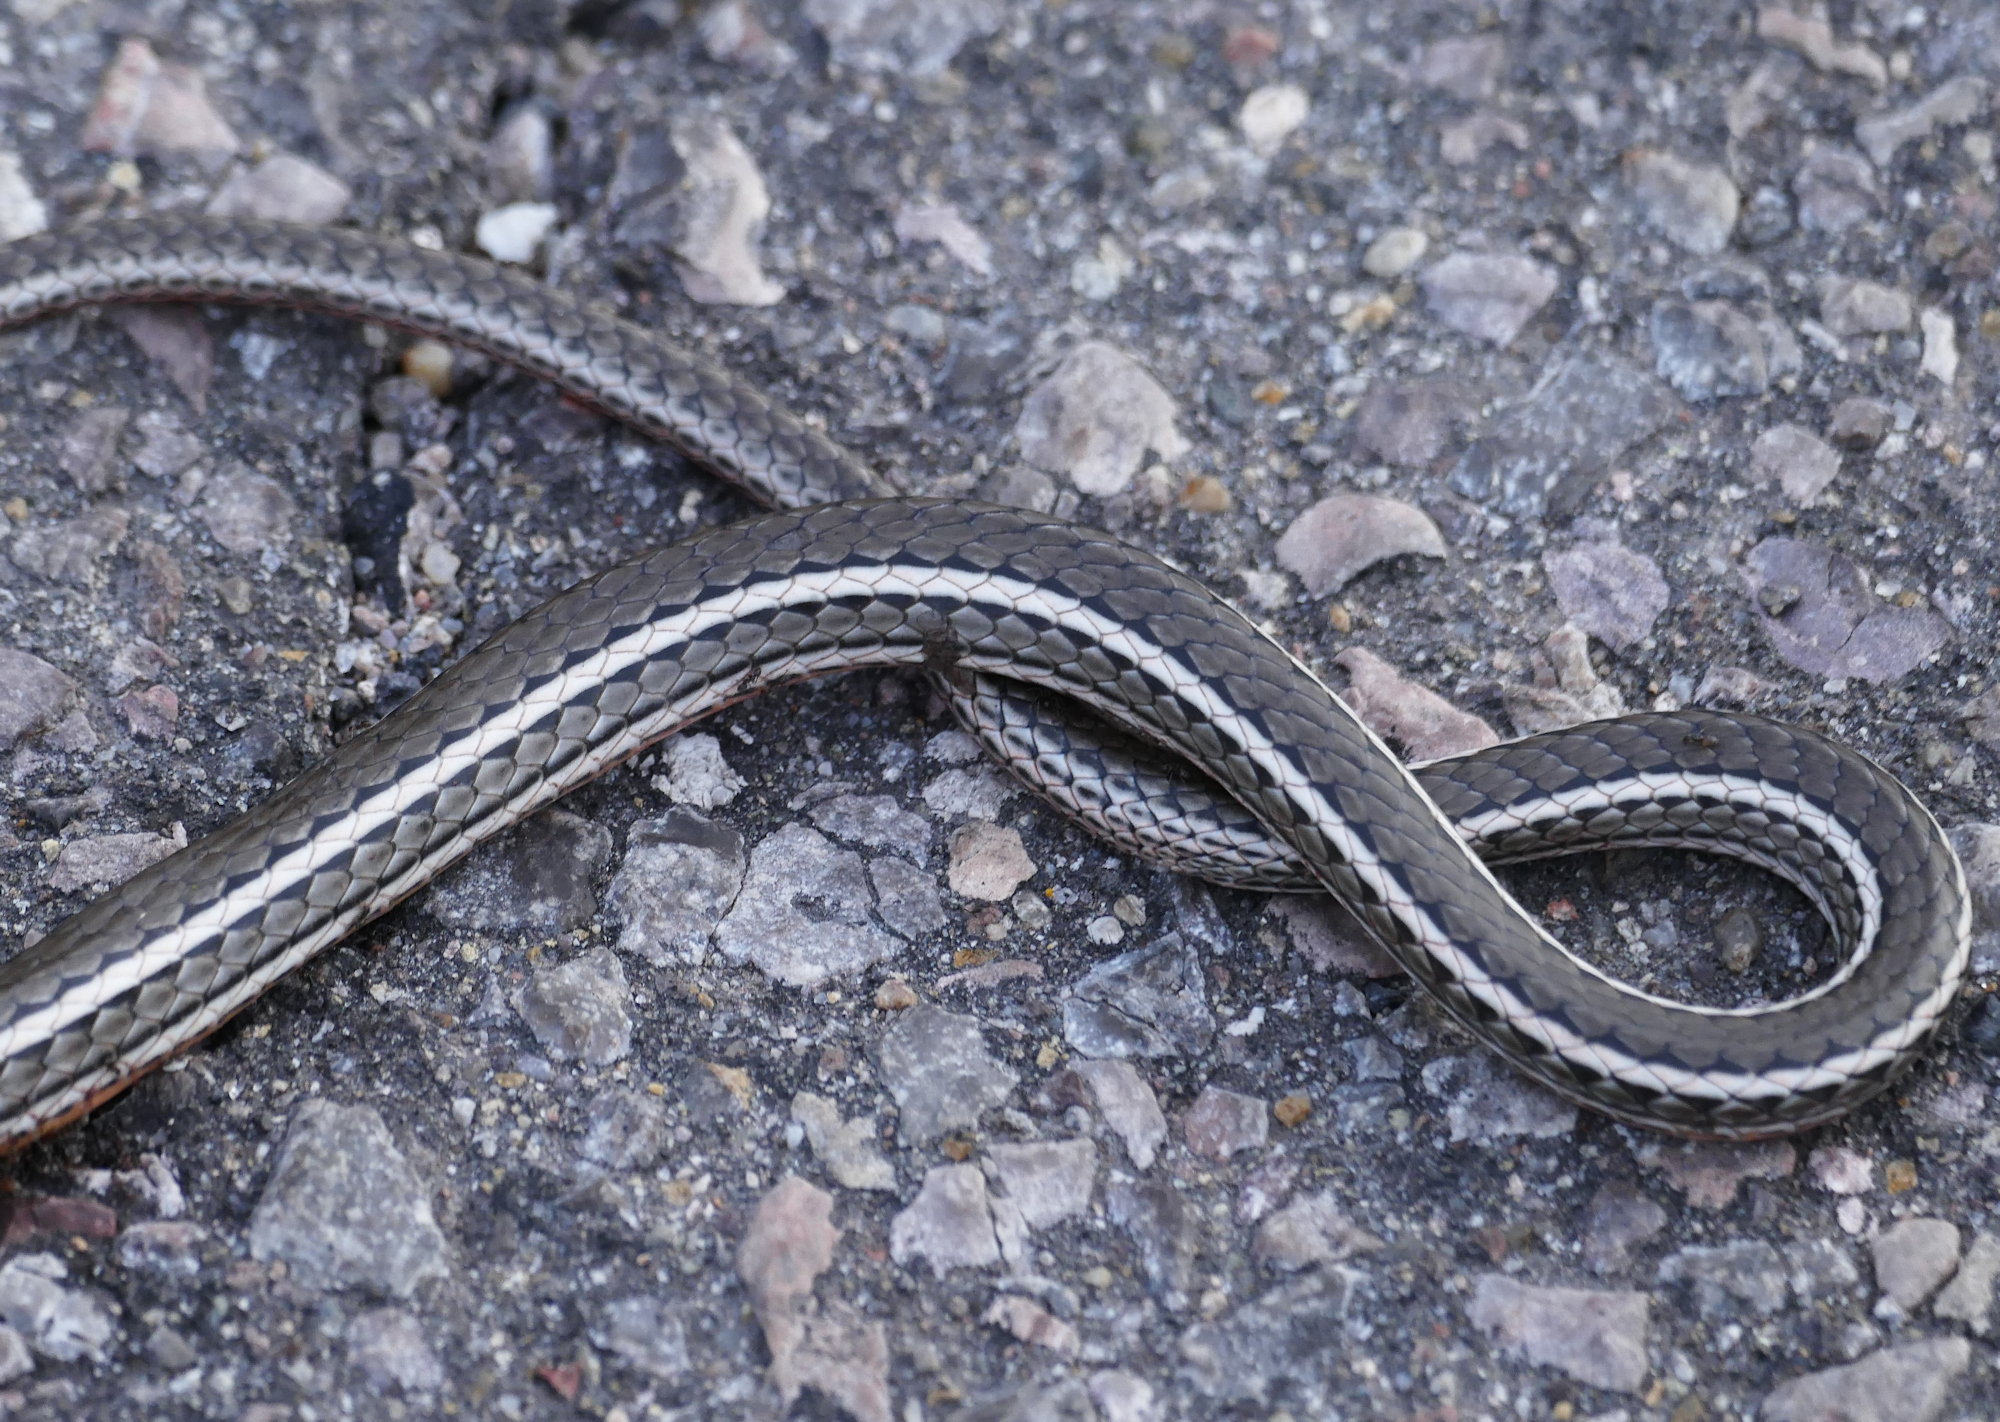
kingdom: Animalia
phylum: Chordata
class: Squamata
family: Colubridae
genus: Masticophis
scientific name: Masticophis taeniatus
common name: Striped whipsnake
